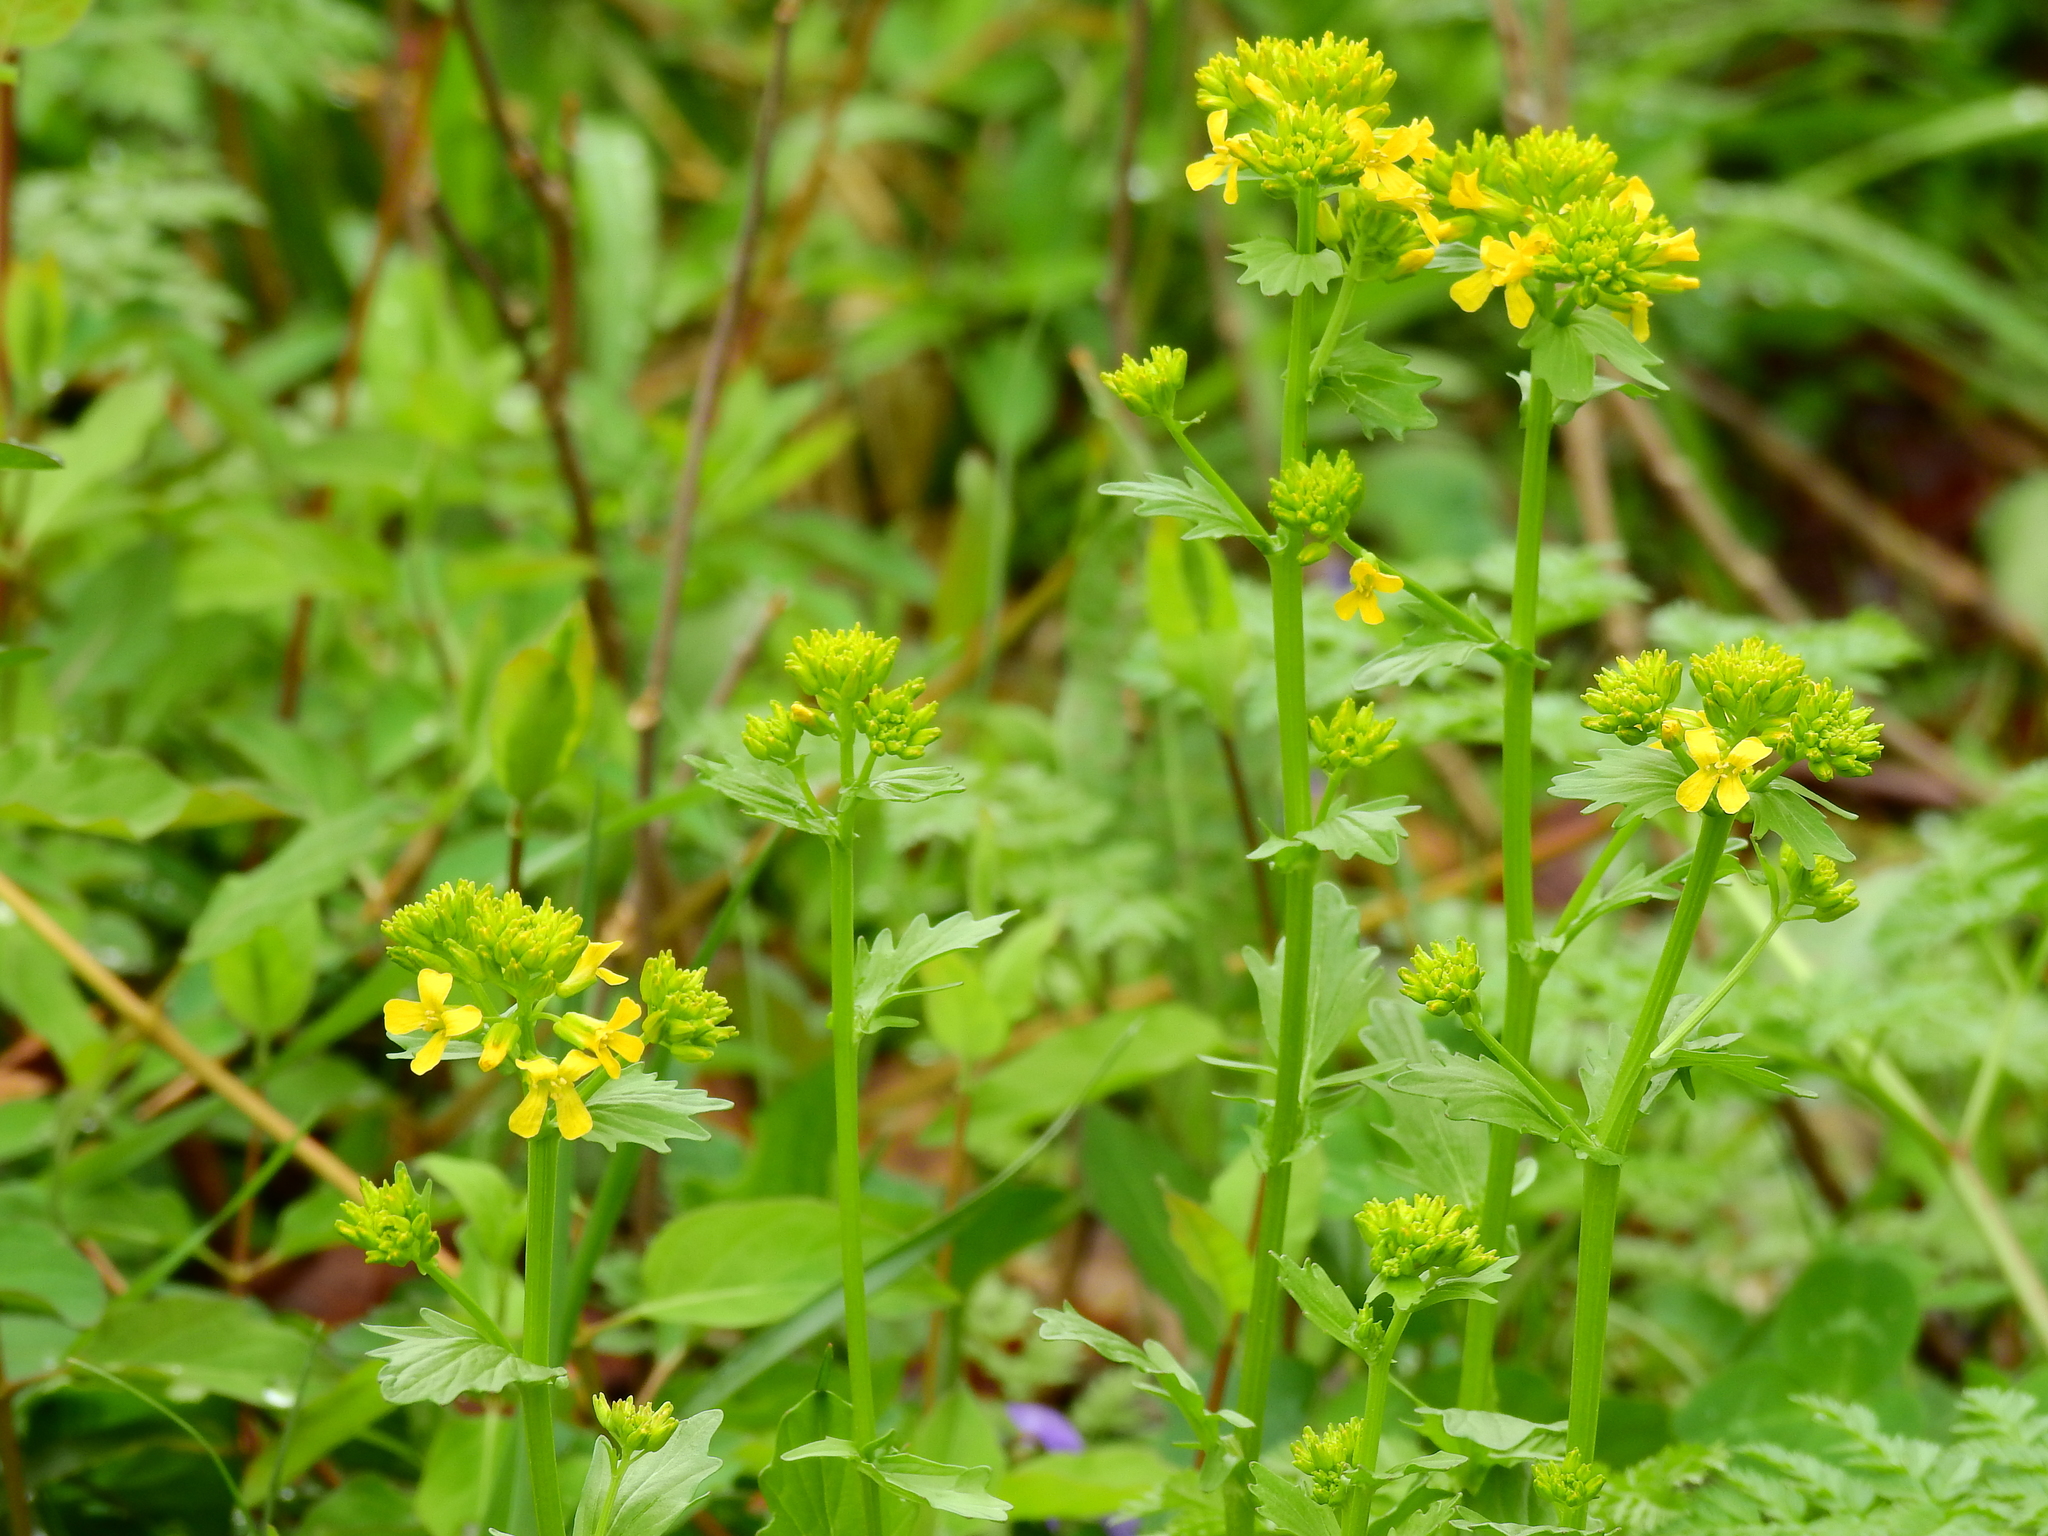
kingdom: Plantae
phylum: Tracheophyta
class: Magnoliopsida
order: Brassicales
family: Brassicaceae
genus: Barbarea
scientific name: Barbarea vulgaris
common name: Cressy-greens
